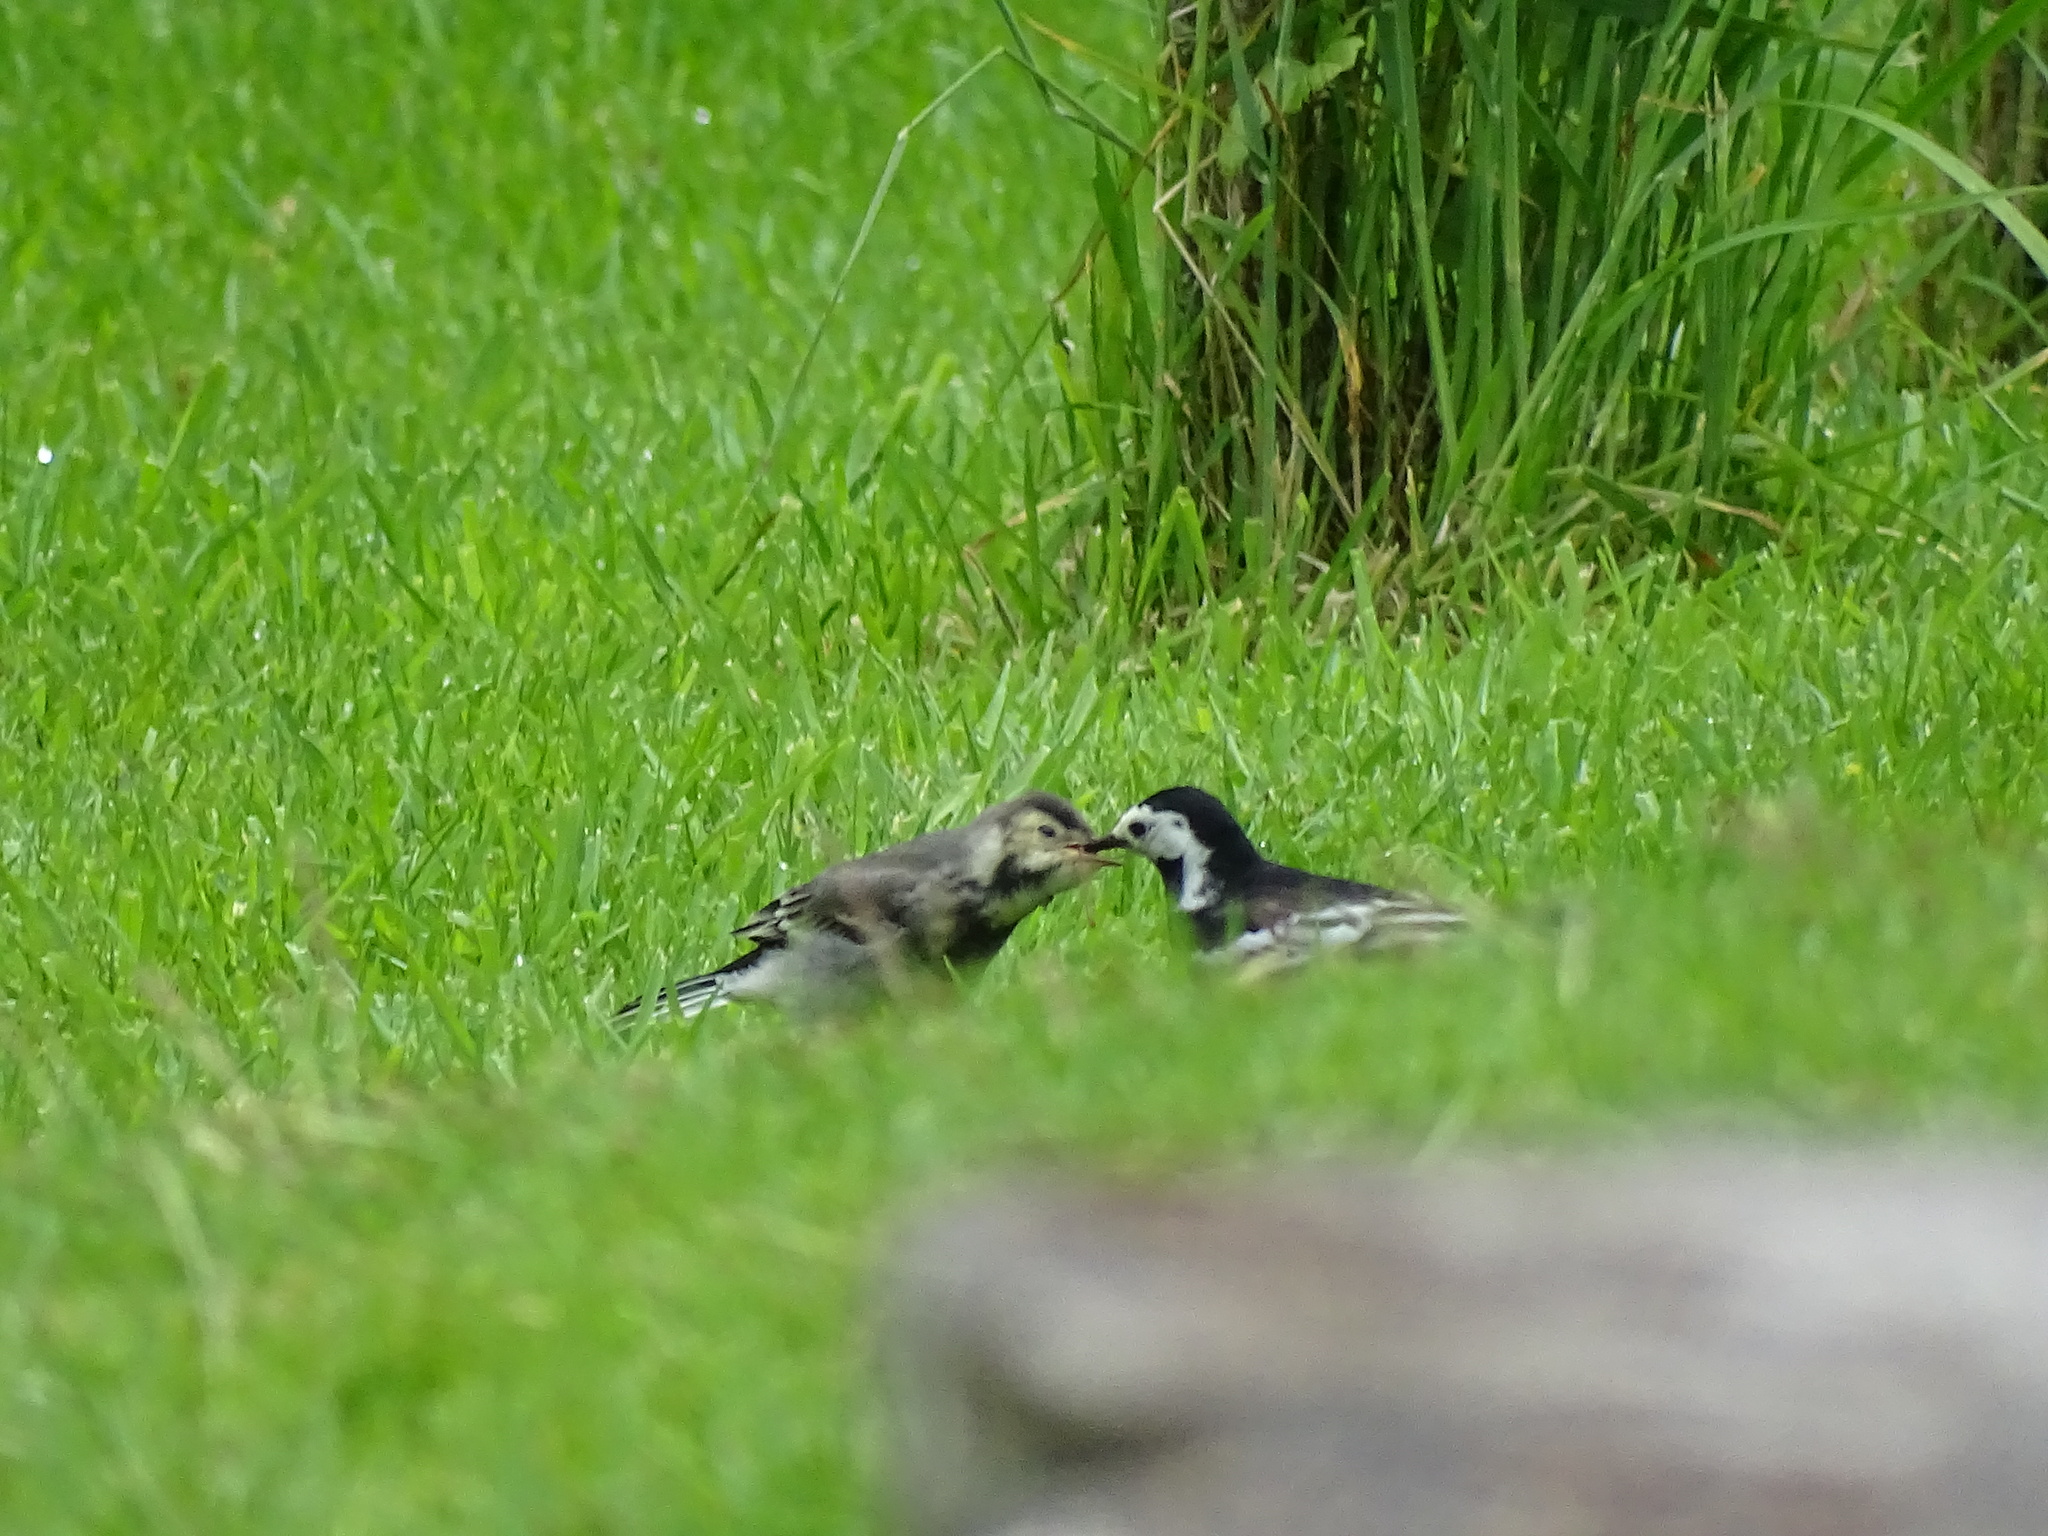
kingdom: Animalia
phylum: Chordata
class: Aves
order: Passeriformes
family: Motacillidae
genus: Motacilla
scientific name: Motacilla alba
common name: White wagtail
